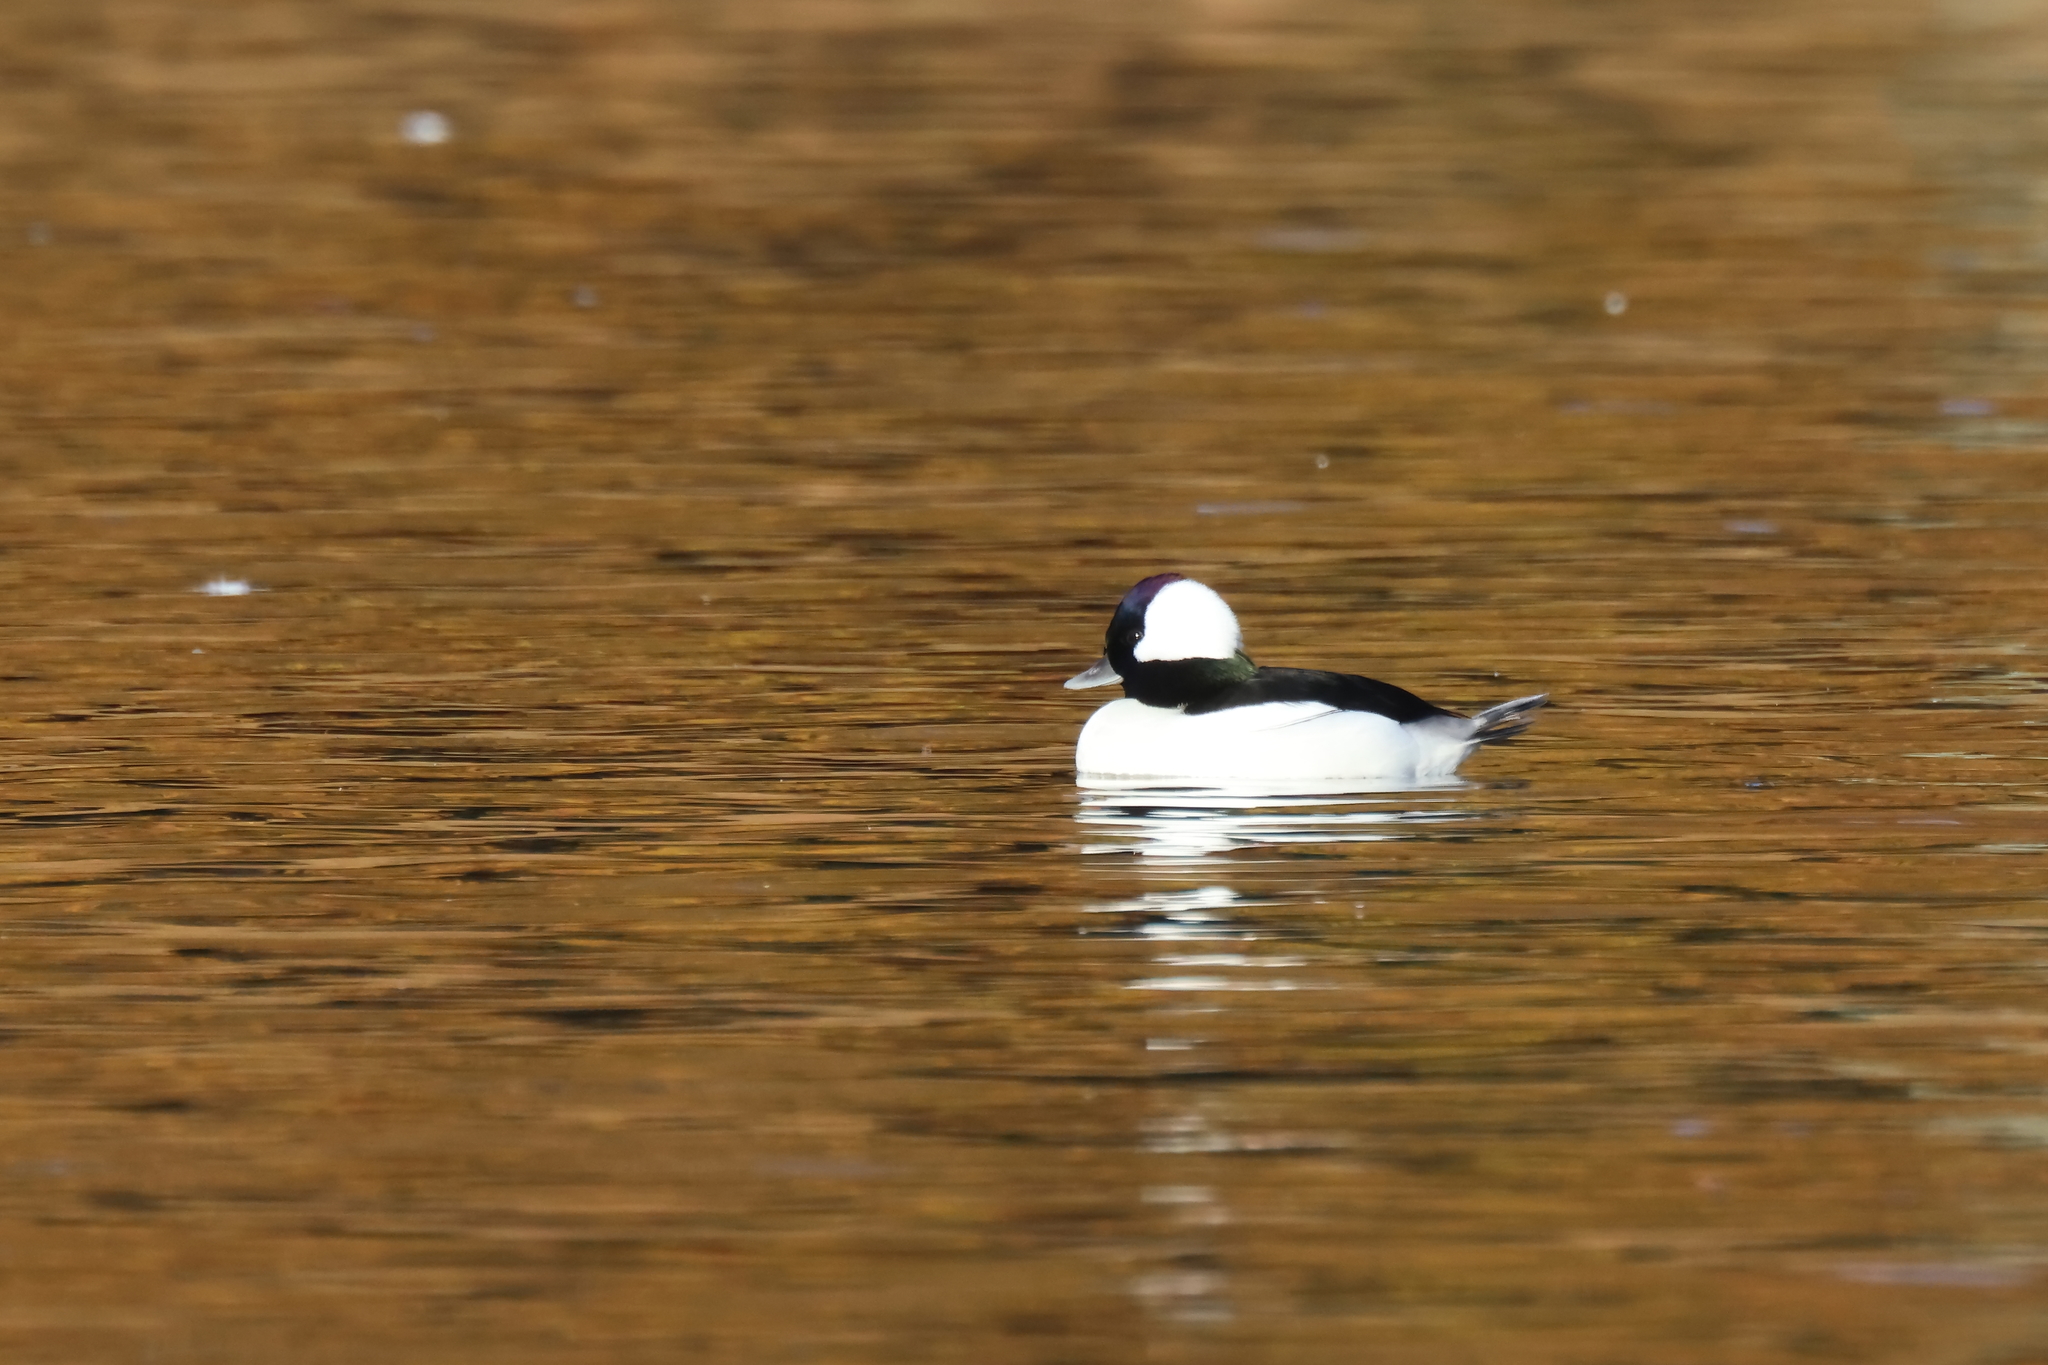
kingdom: Animalia
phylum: Chordata
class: Aves
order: Anseriformes
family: Anatidae
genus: Bucephala
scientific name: Bucephala albeola
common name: Bufflehead
